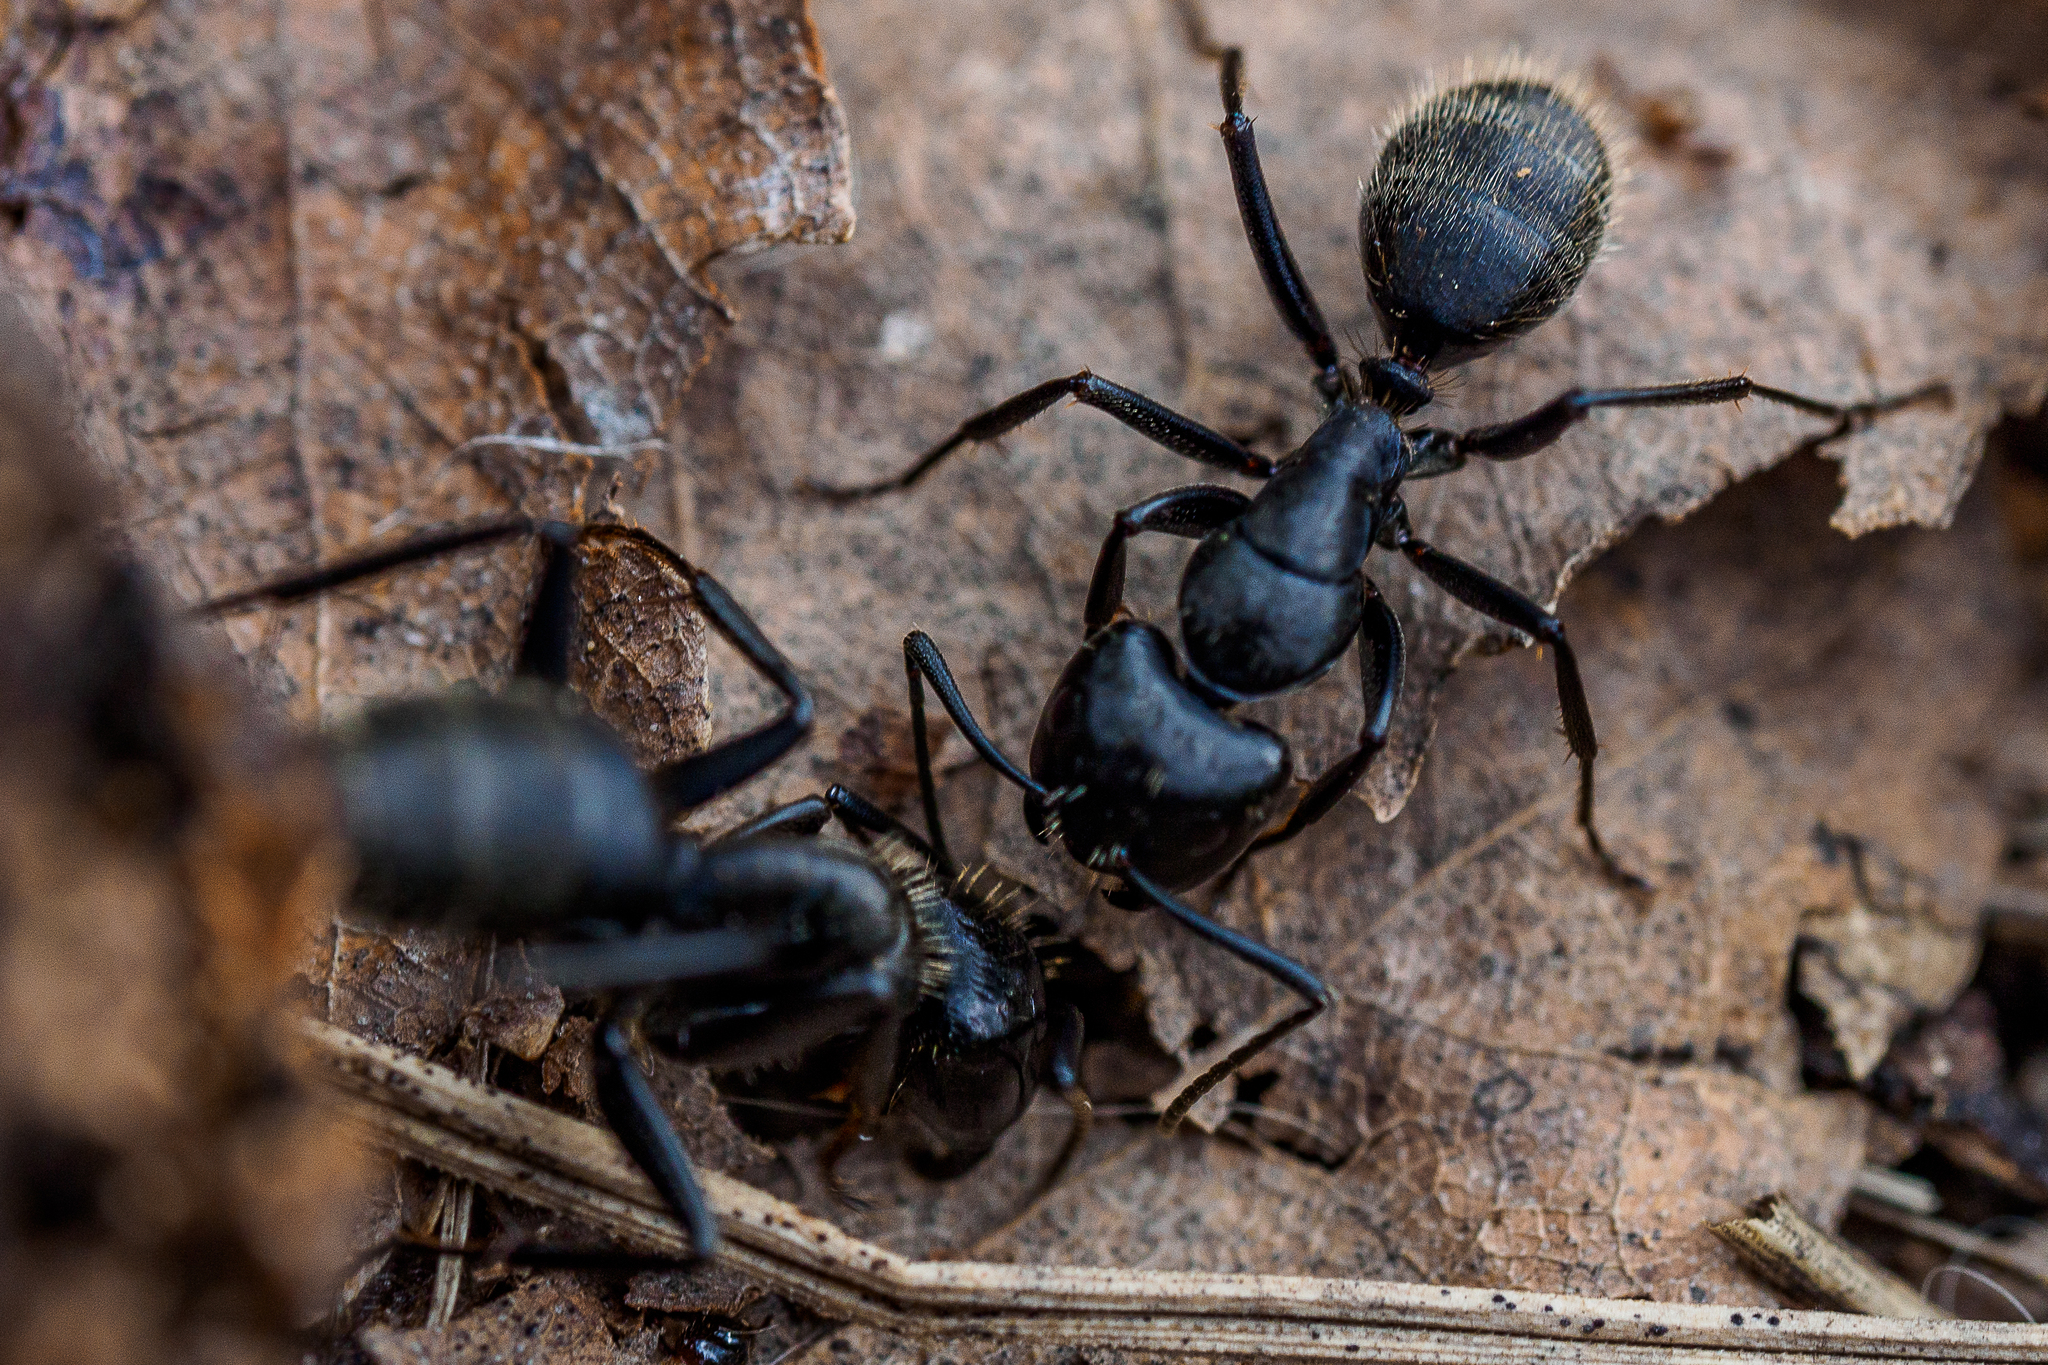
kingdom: Animalia
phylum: Arthropoda
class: Insecta
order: Hymenoptera
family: Formicidae
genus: Camponotus
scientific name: Camponotus vagus
